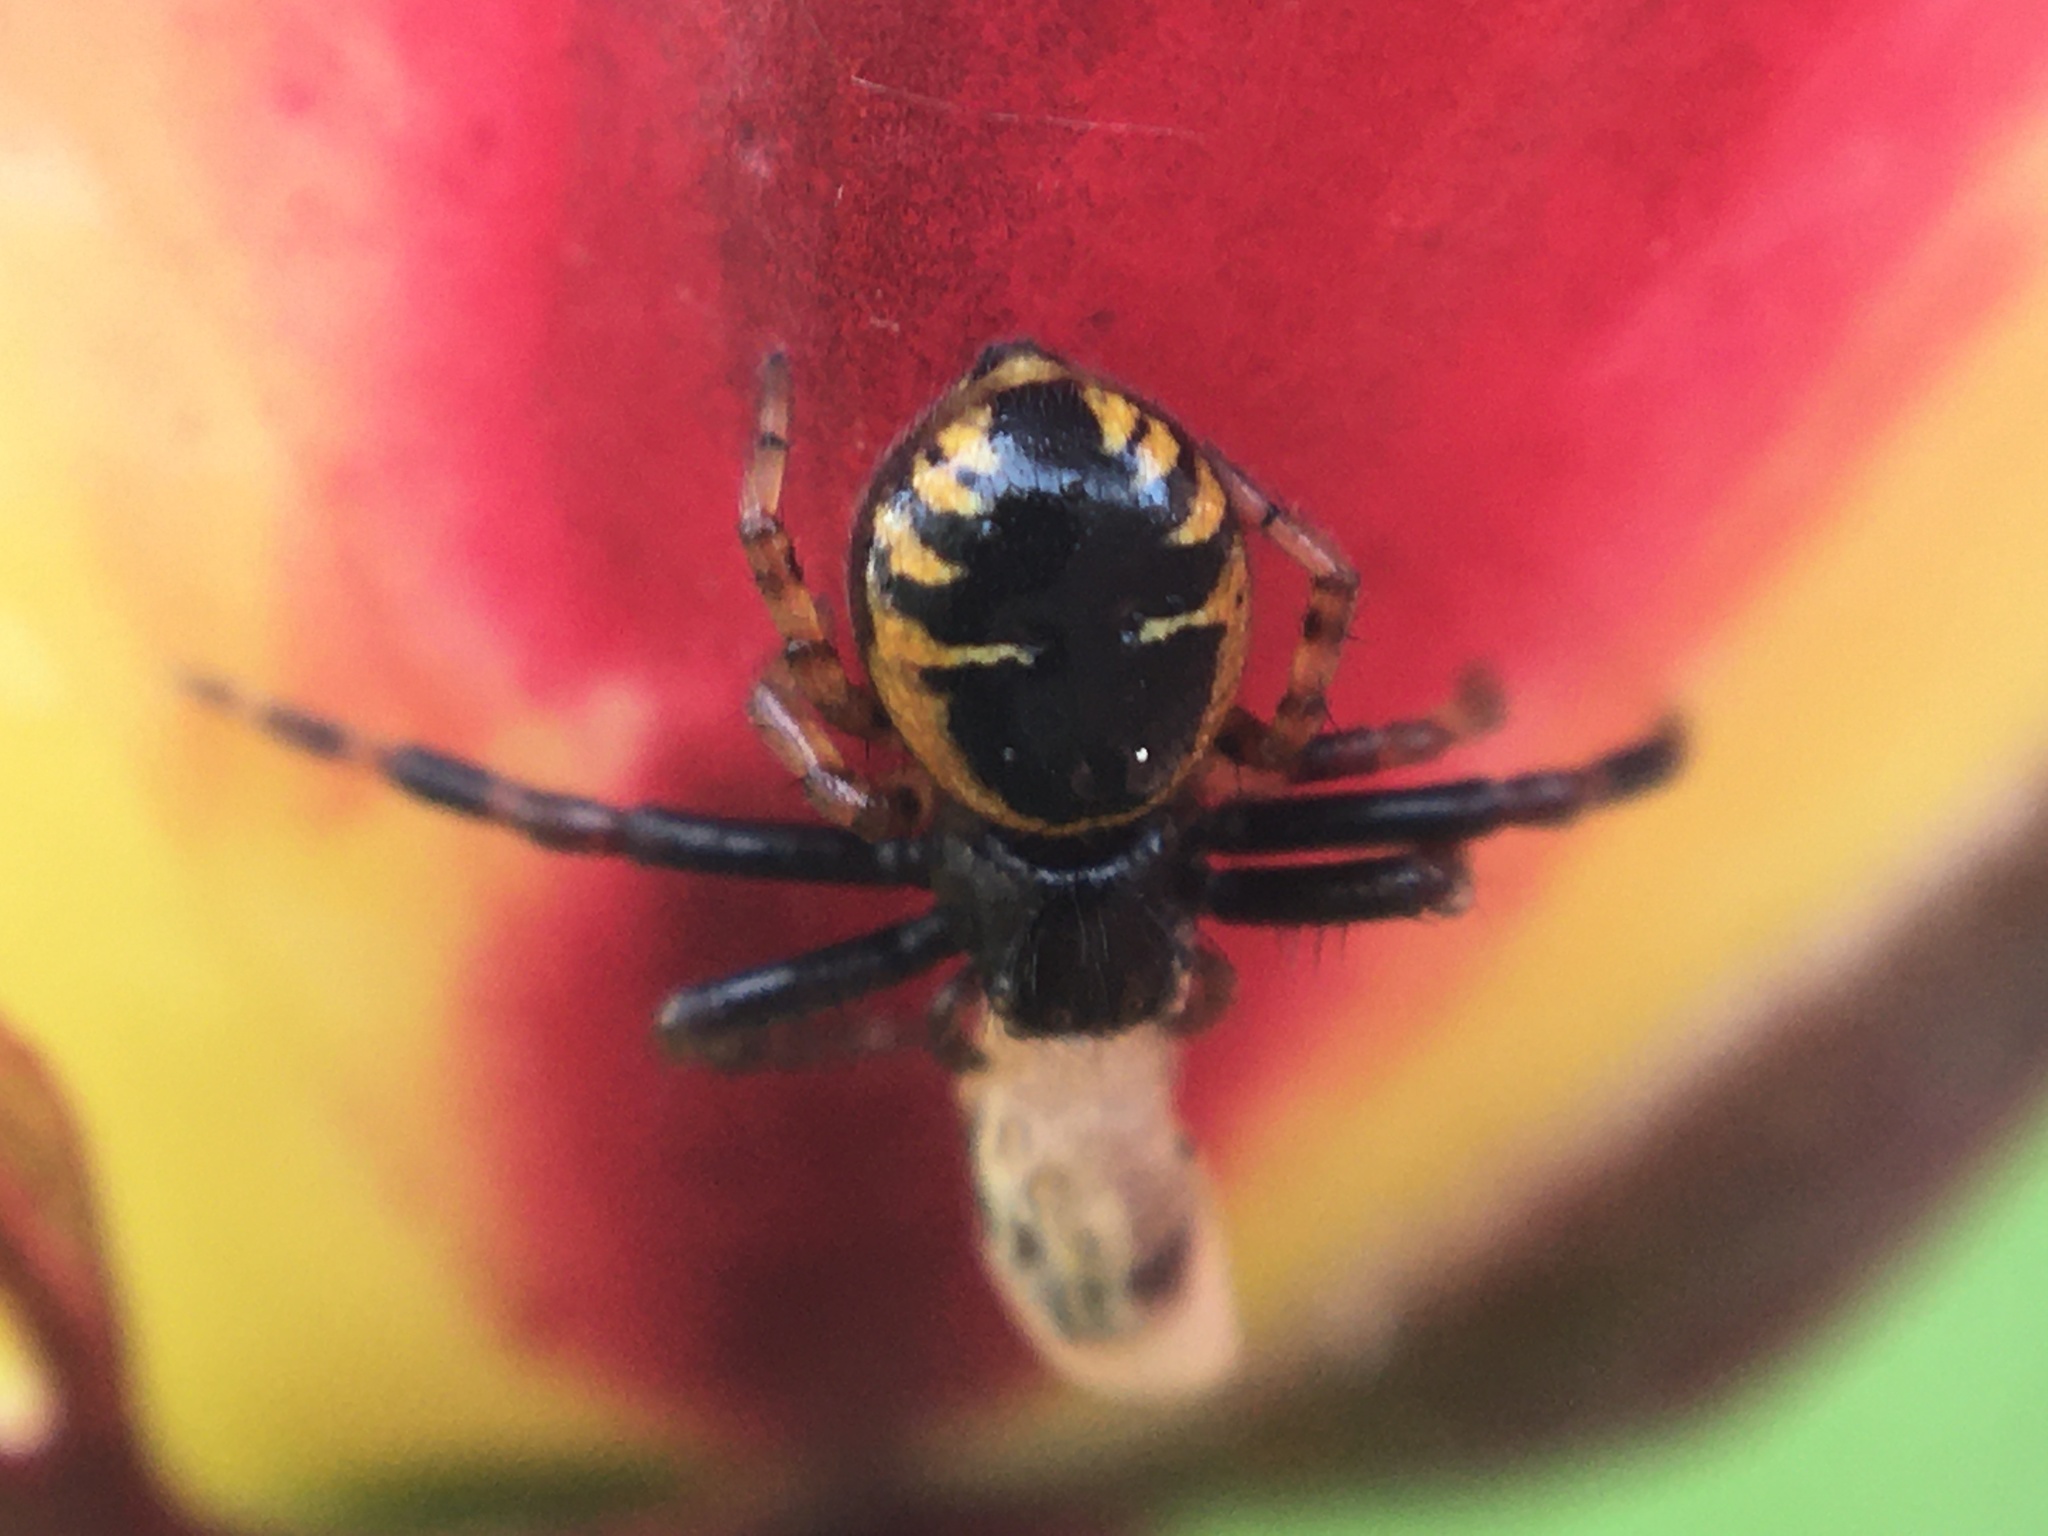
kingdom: Animalia
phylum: Arthropoda
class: Arachnida
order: Araneae
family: Thomisidae
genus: Synema
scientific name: Synema globosum
